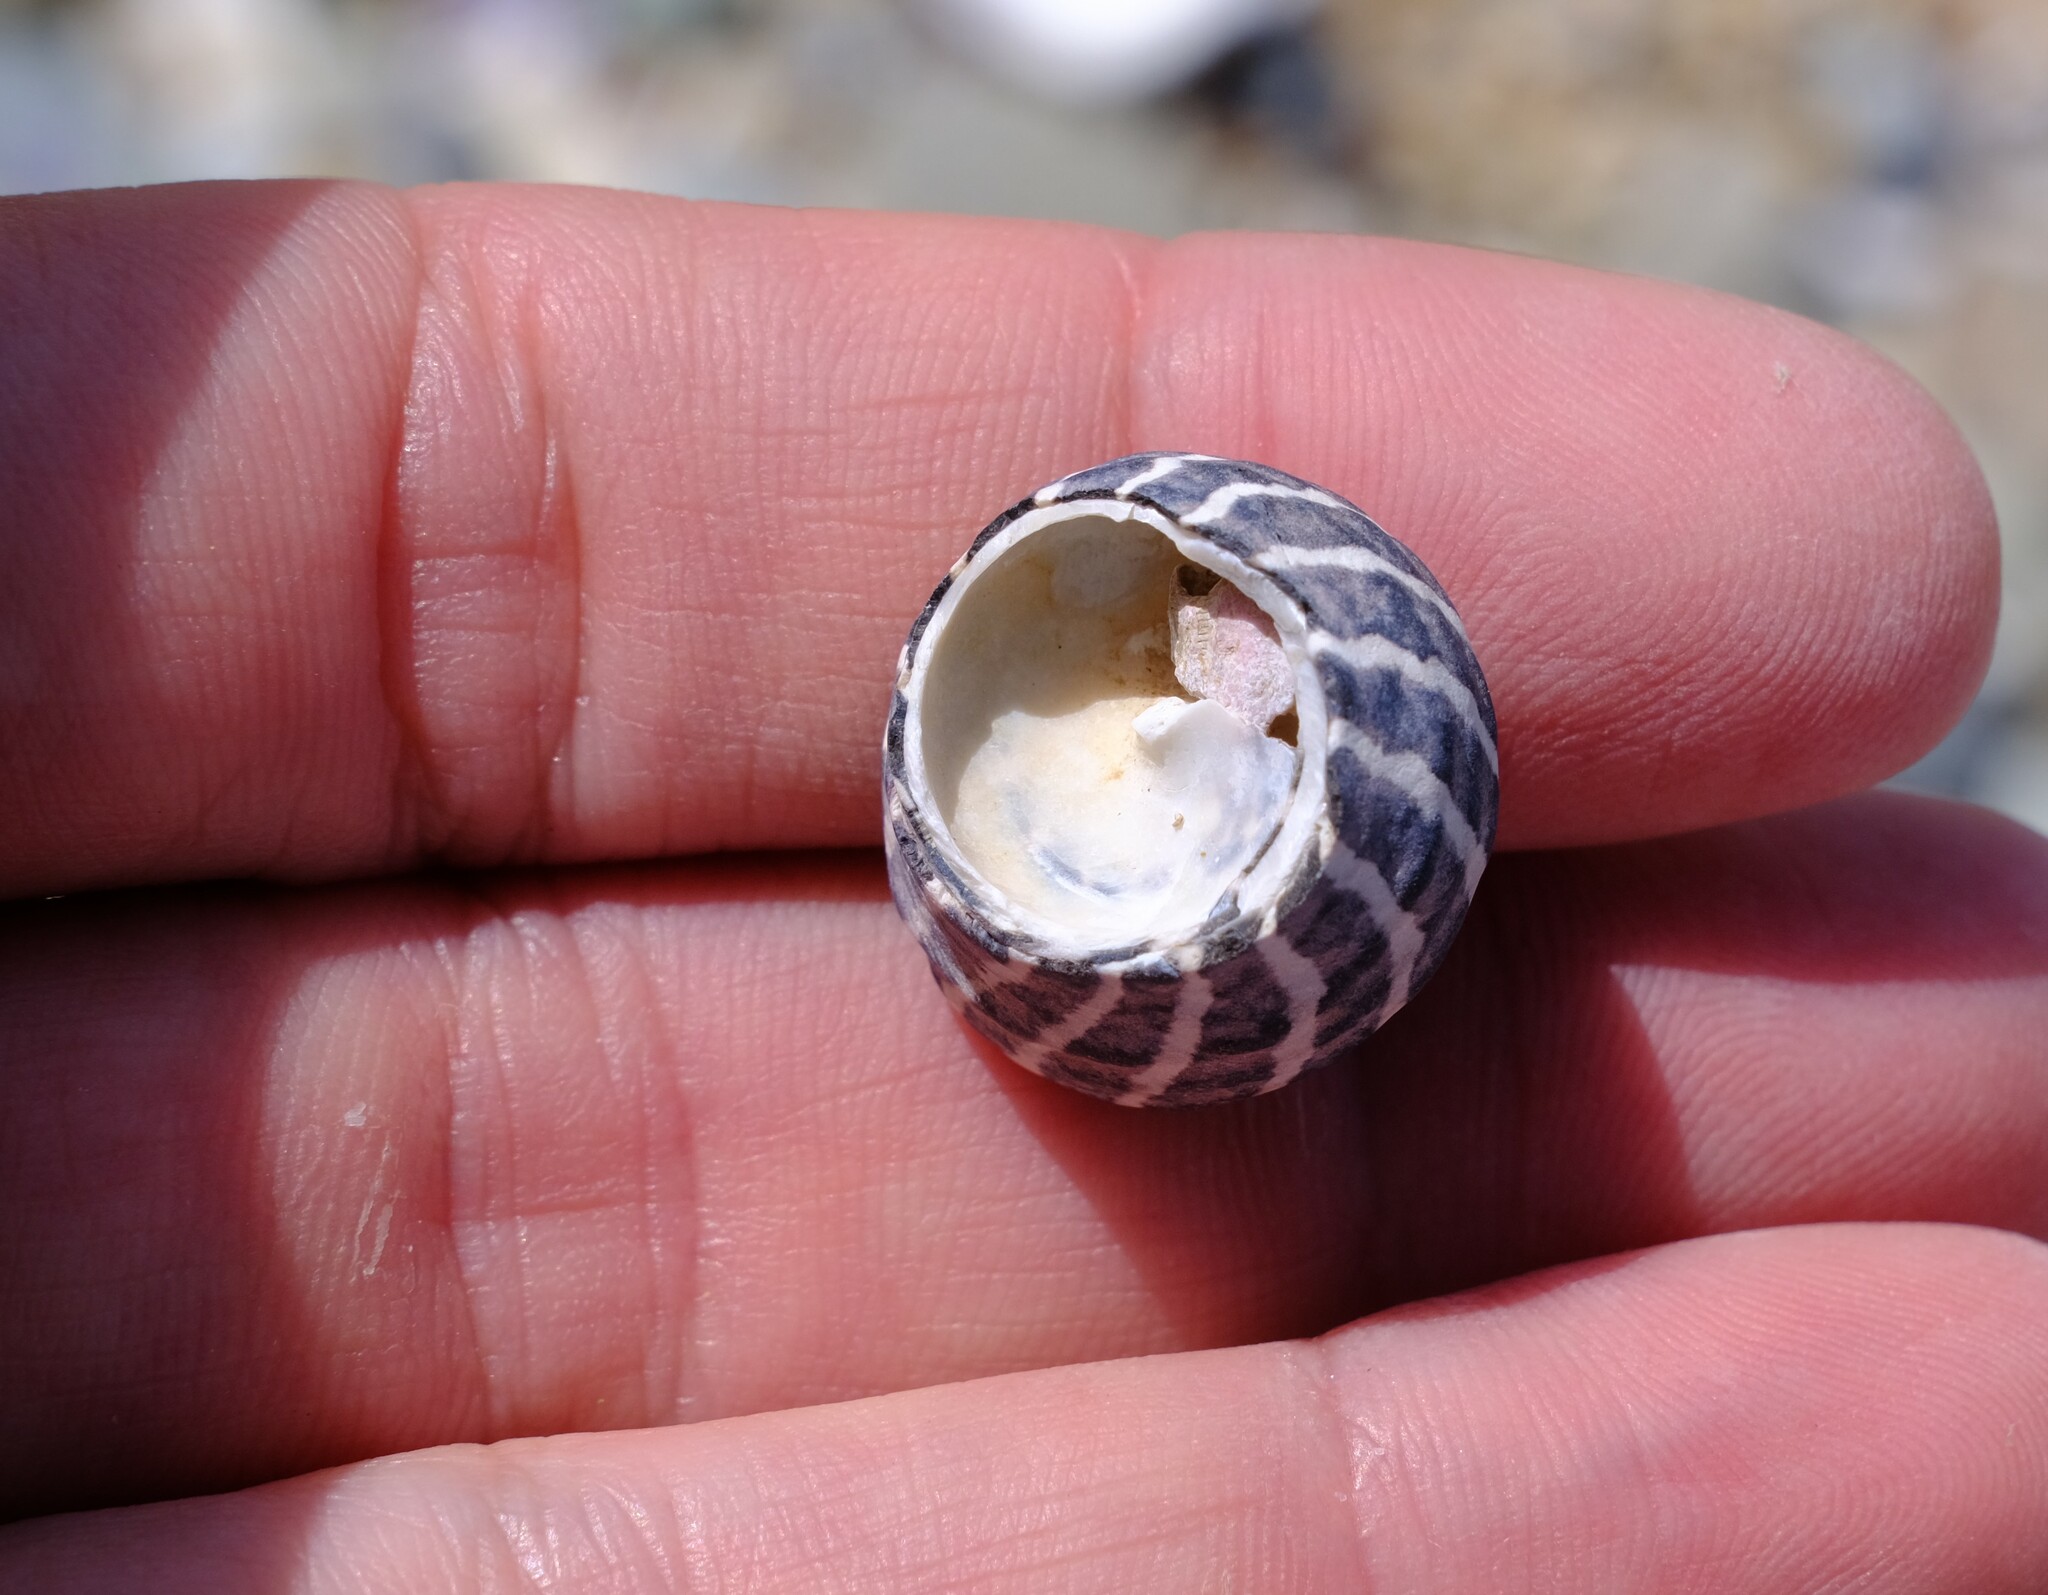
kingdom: Animalia
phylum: Mollusca
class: Gastropoda
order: Trochida
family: Trochidae
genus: Austrocochlea
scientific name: Austrocochlea porcata
